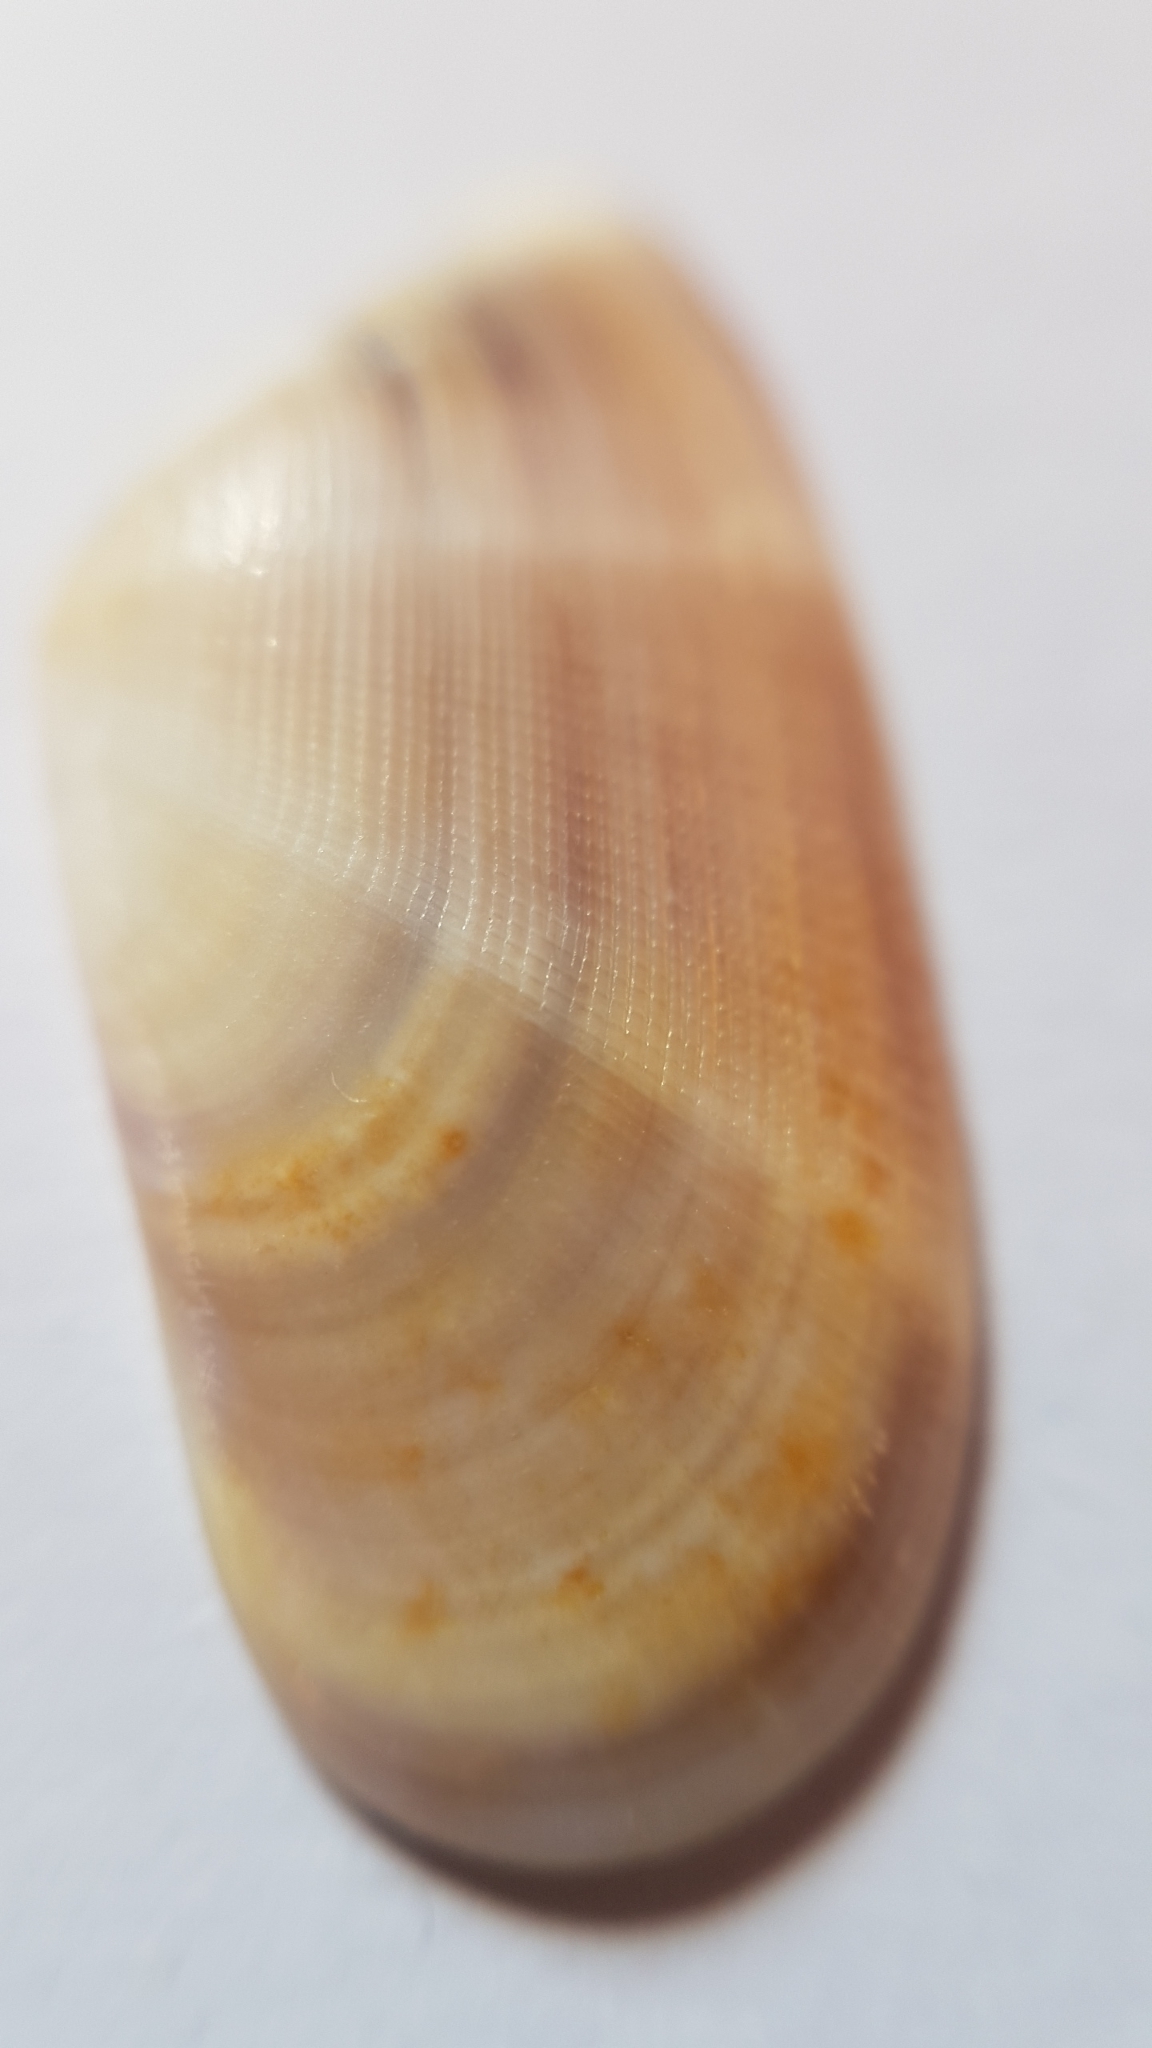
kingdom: Animalia
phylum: Mollusca
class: Bivalvia
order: Cardiida
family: Donacidae
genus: Donax
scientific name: Donax semistriatus
